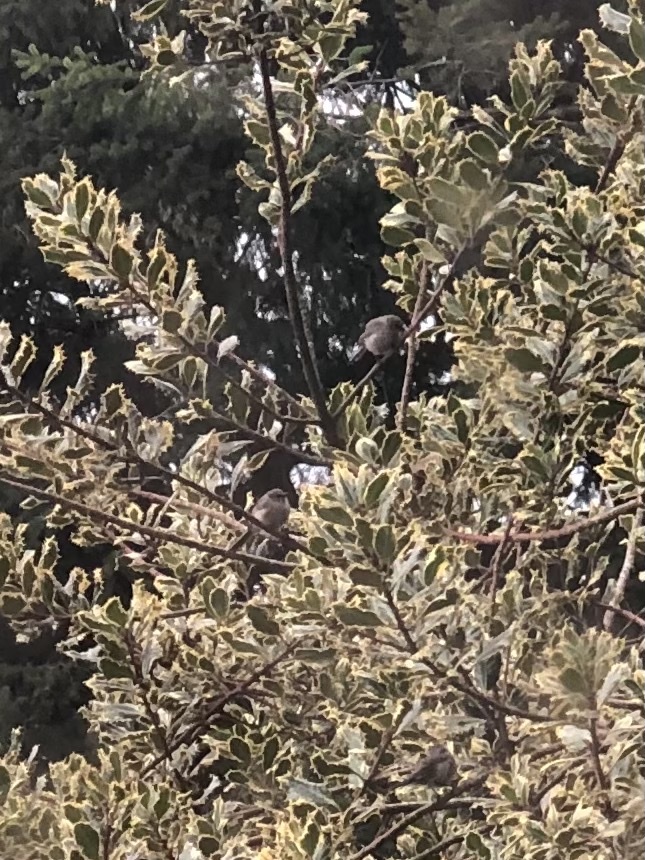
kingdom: Animalia
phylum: Chordata
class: Aves
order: Passeriformes
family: Aegithalidae
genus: Psaltriparus
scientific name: Psaltriparus minimus
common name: American bushtit
